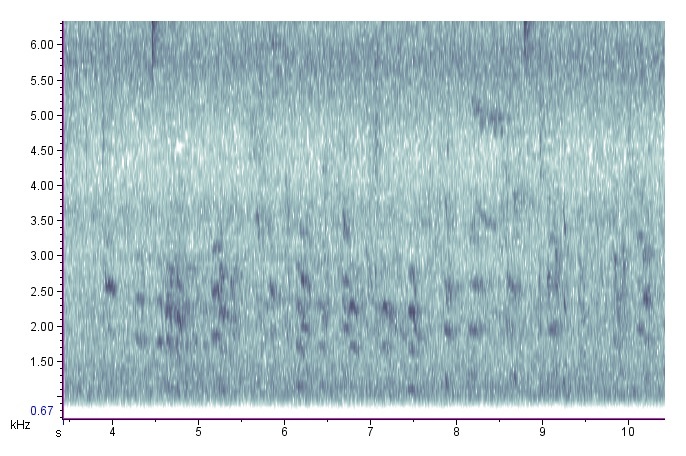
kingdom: Animalia
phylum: Chordata
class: Aves
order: Passeriformes
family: Sittidae
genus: Sitta
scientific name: Sitta carolinensis
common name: White-breasted nuthatch
